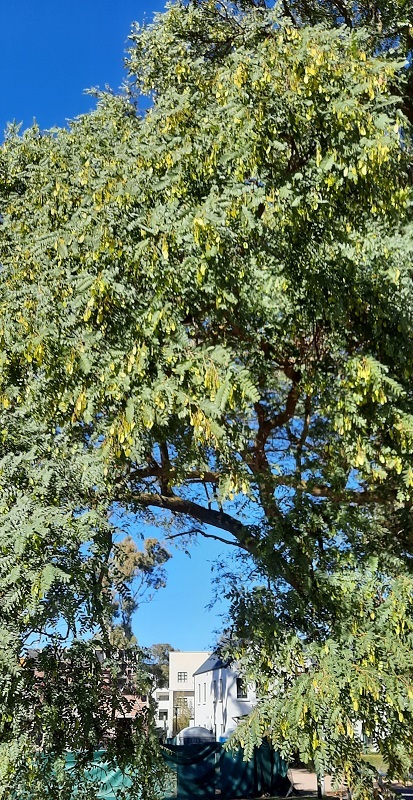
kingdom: Plantae
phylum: Tracheophyta
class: Magnoliopsida
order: Fabales
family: Fabaceae
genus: Tipuana
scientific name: Tipuana tipu
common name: Tiputree
